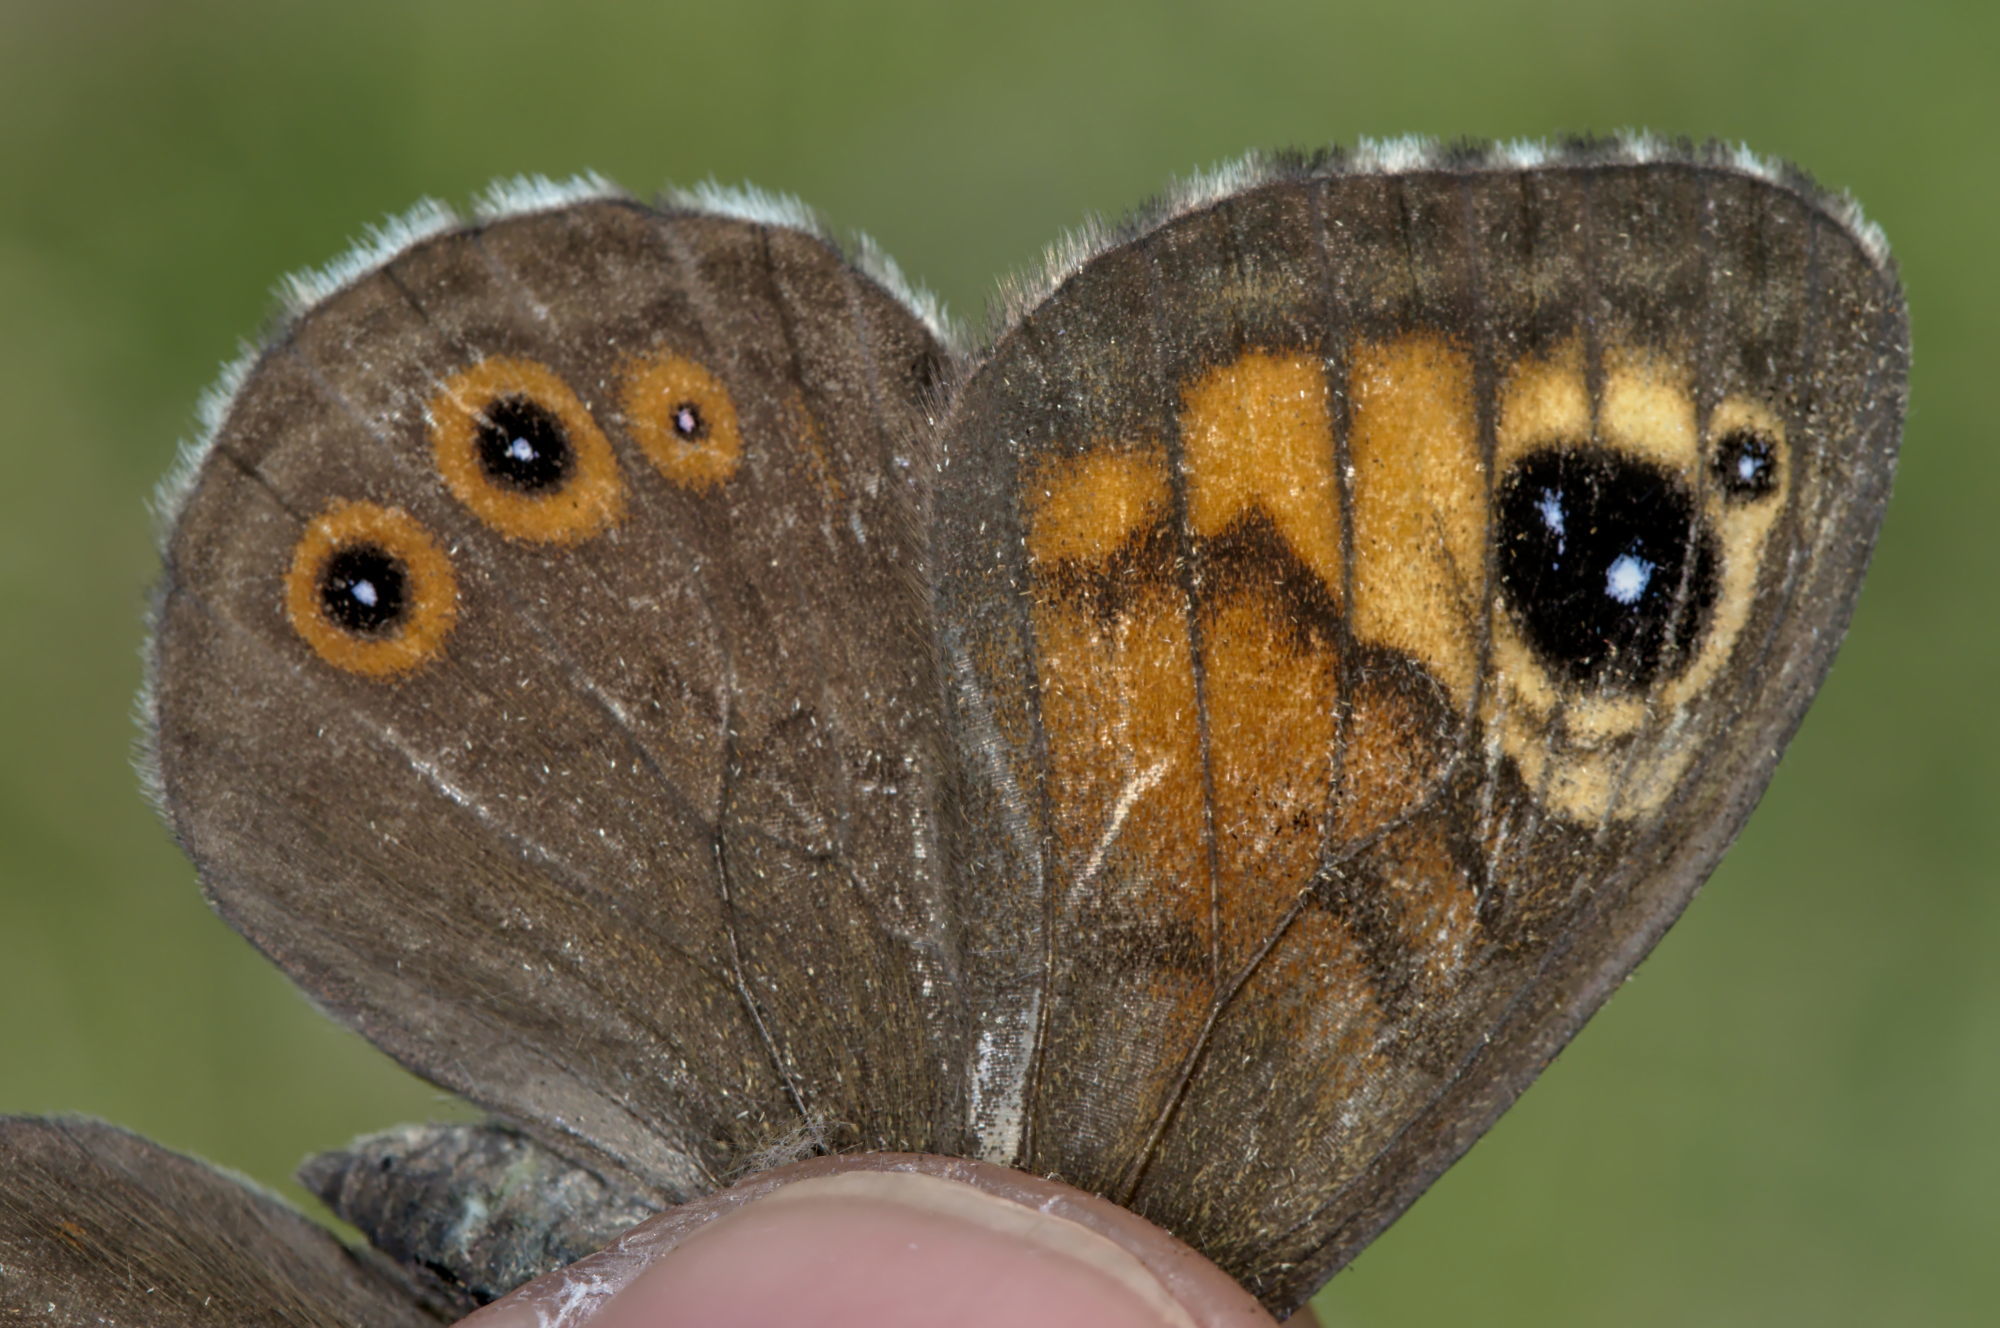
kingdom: Animalia
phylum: Arthropoda
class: Insecta
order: Lepidoptera
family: Nymphalidae
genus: Pararge
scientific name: Pararge Lasiommata maera
